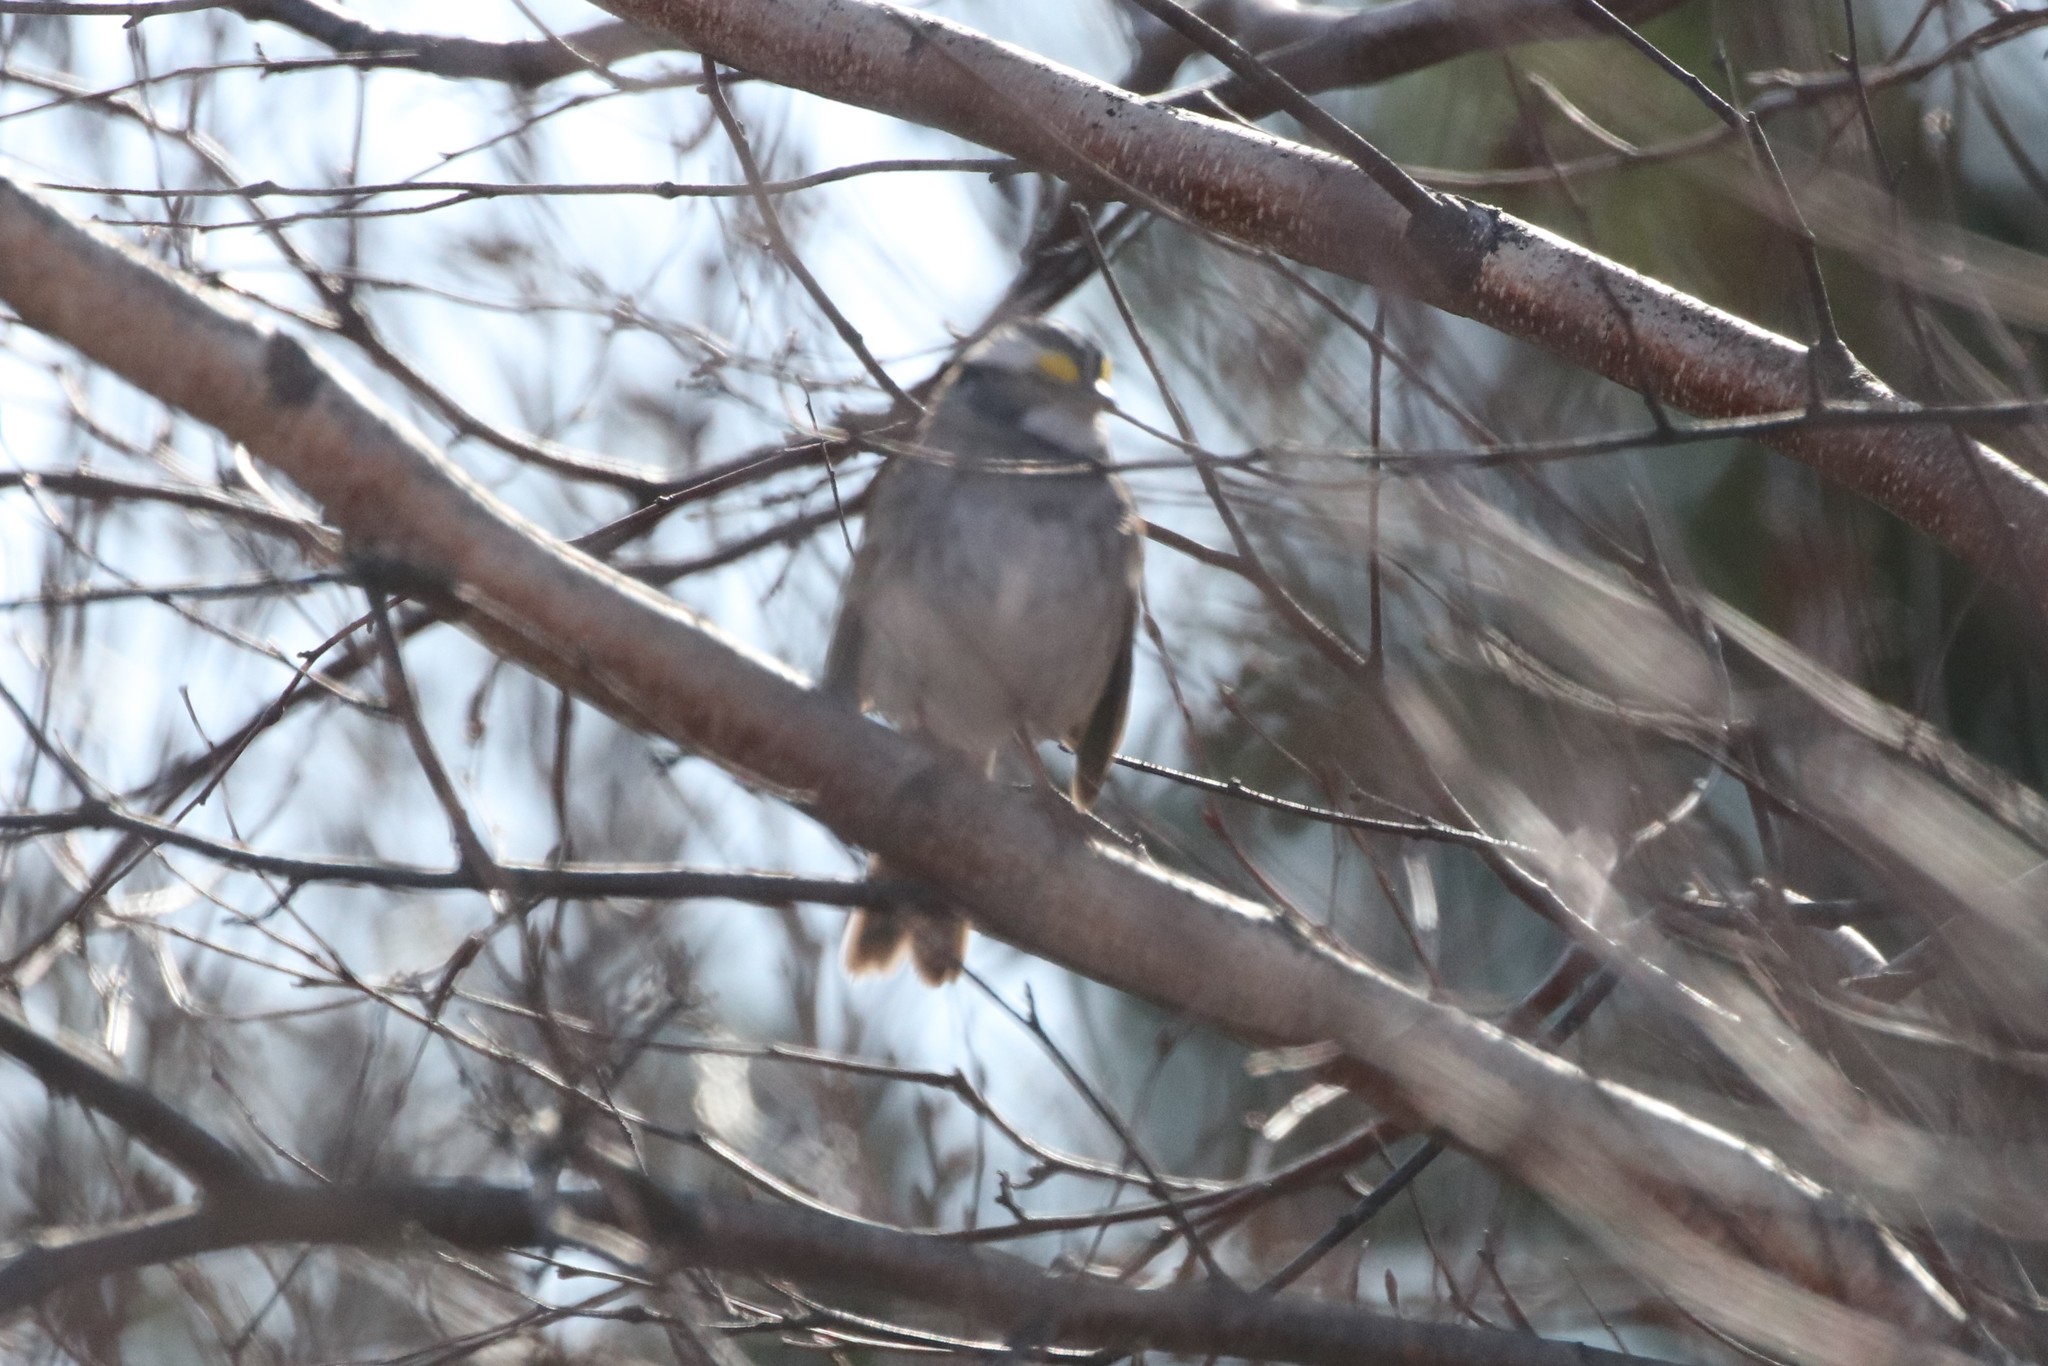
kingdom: Animalia
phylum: Chordata
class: Aves
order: Passeriformes
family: Passerellidae
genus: Zonotrichia
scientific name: Zonotrichia albicollis
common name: White-throated sparrow
